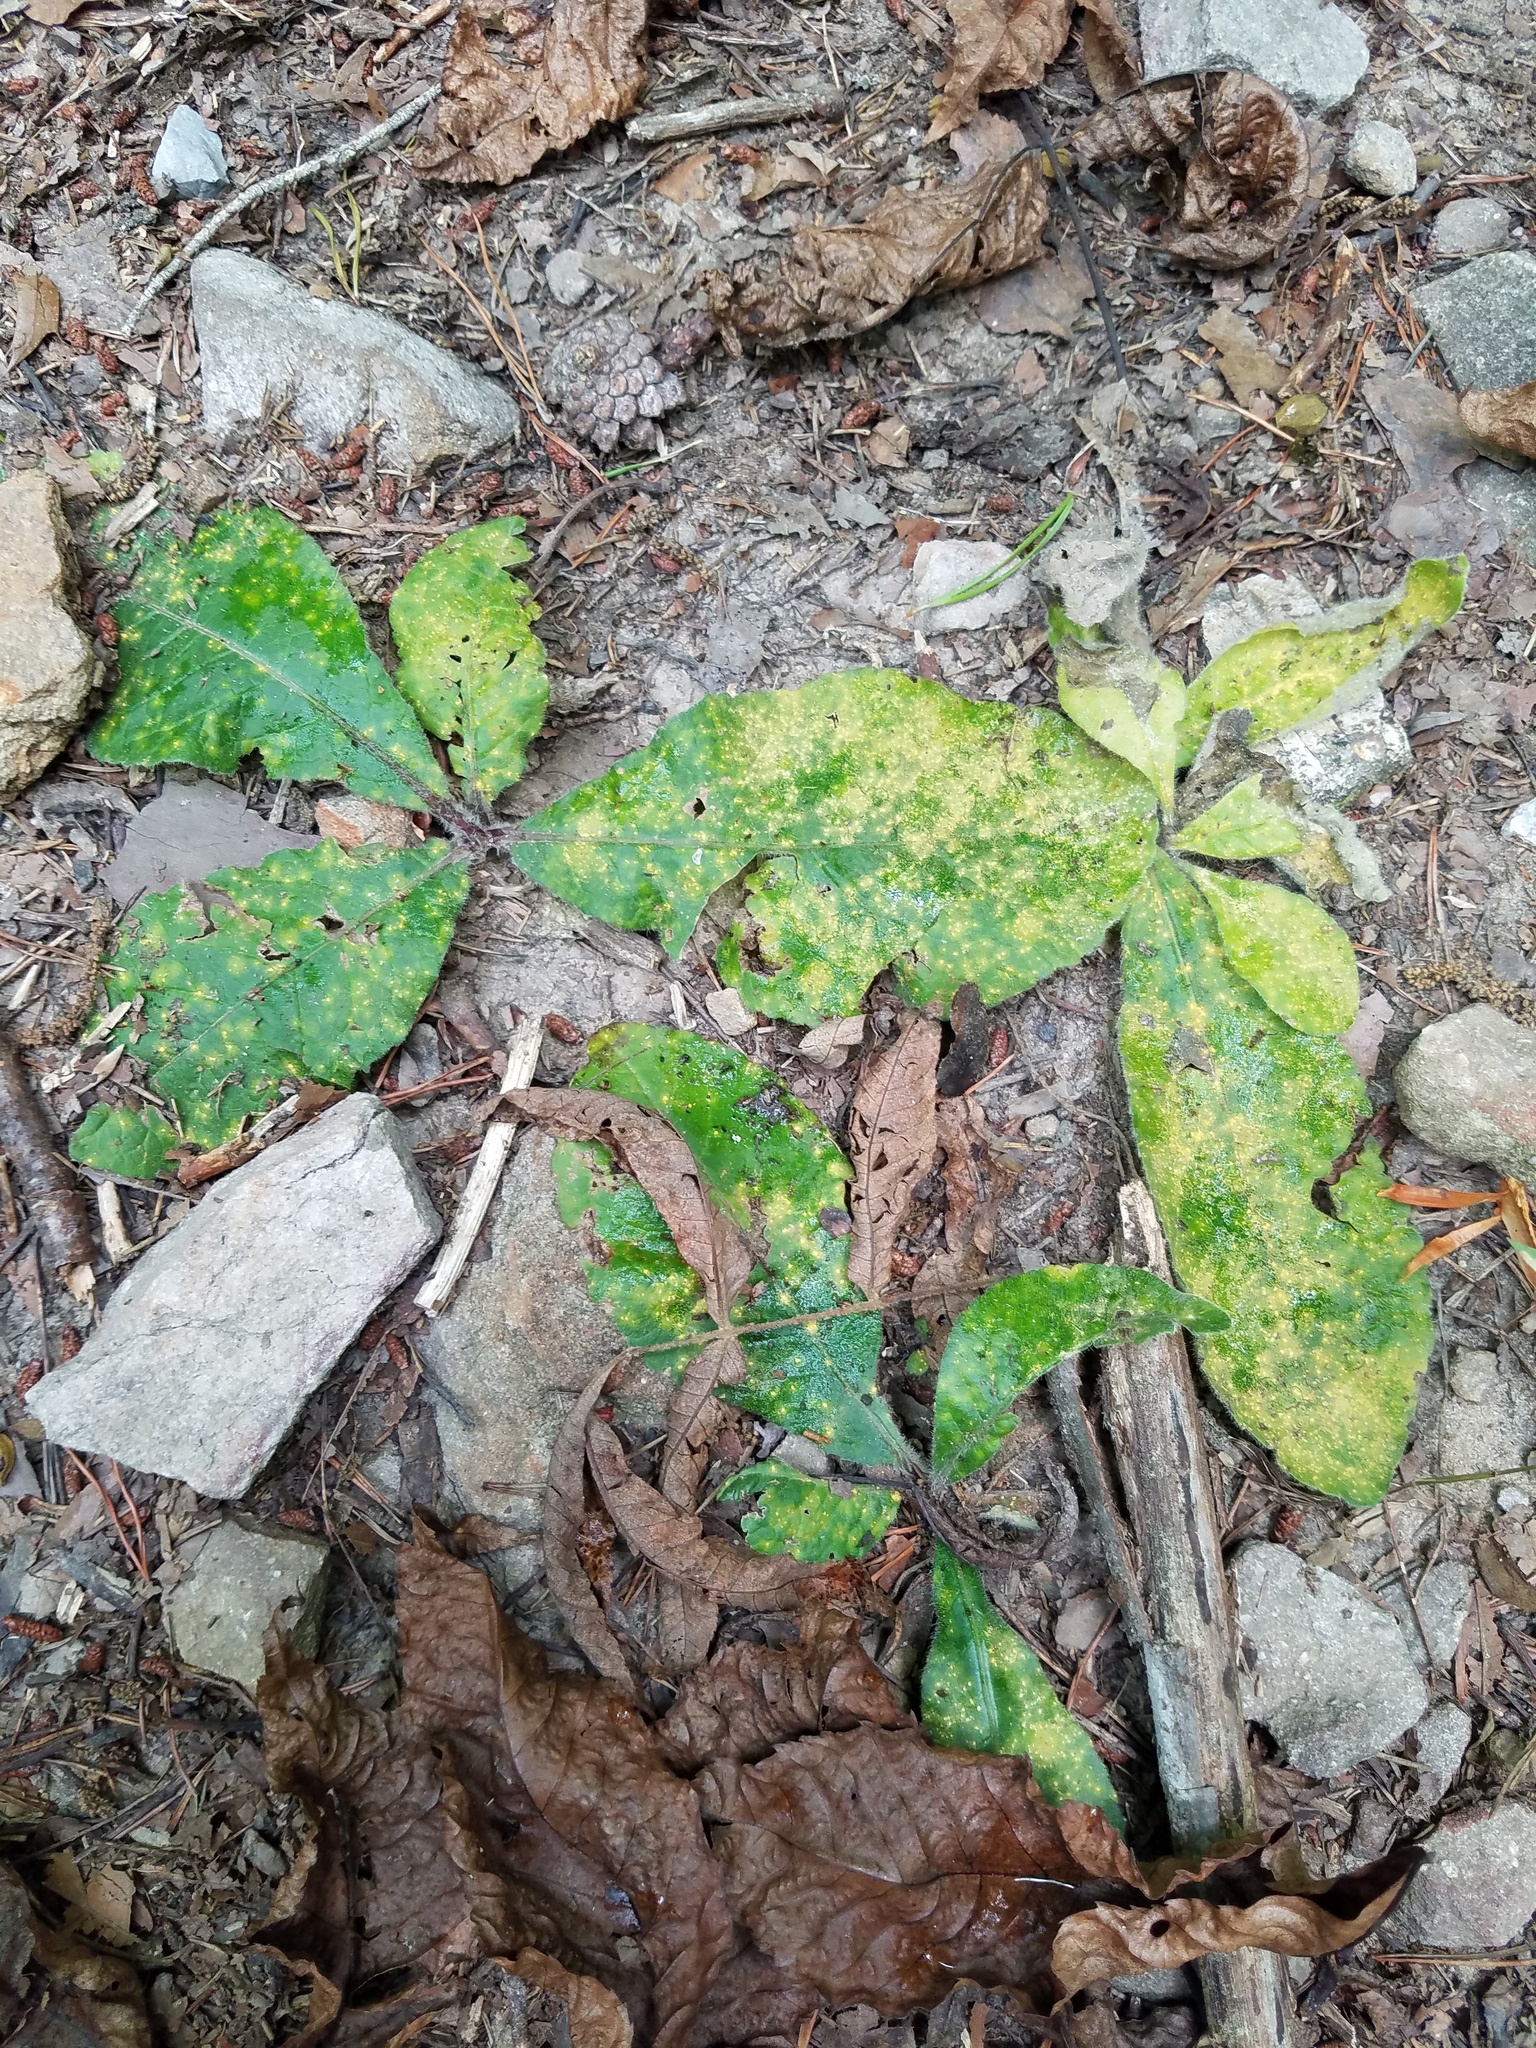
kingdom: Plantae
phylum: Tracheophyta
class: Magnoliopsida
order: Asterales
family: Asteraceae
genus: Elephantopus
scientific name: Elephantopus tomentosus
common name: Tobacco-weed
